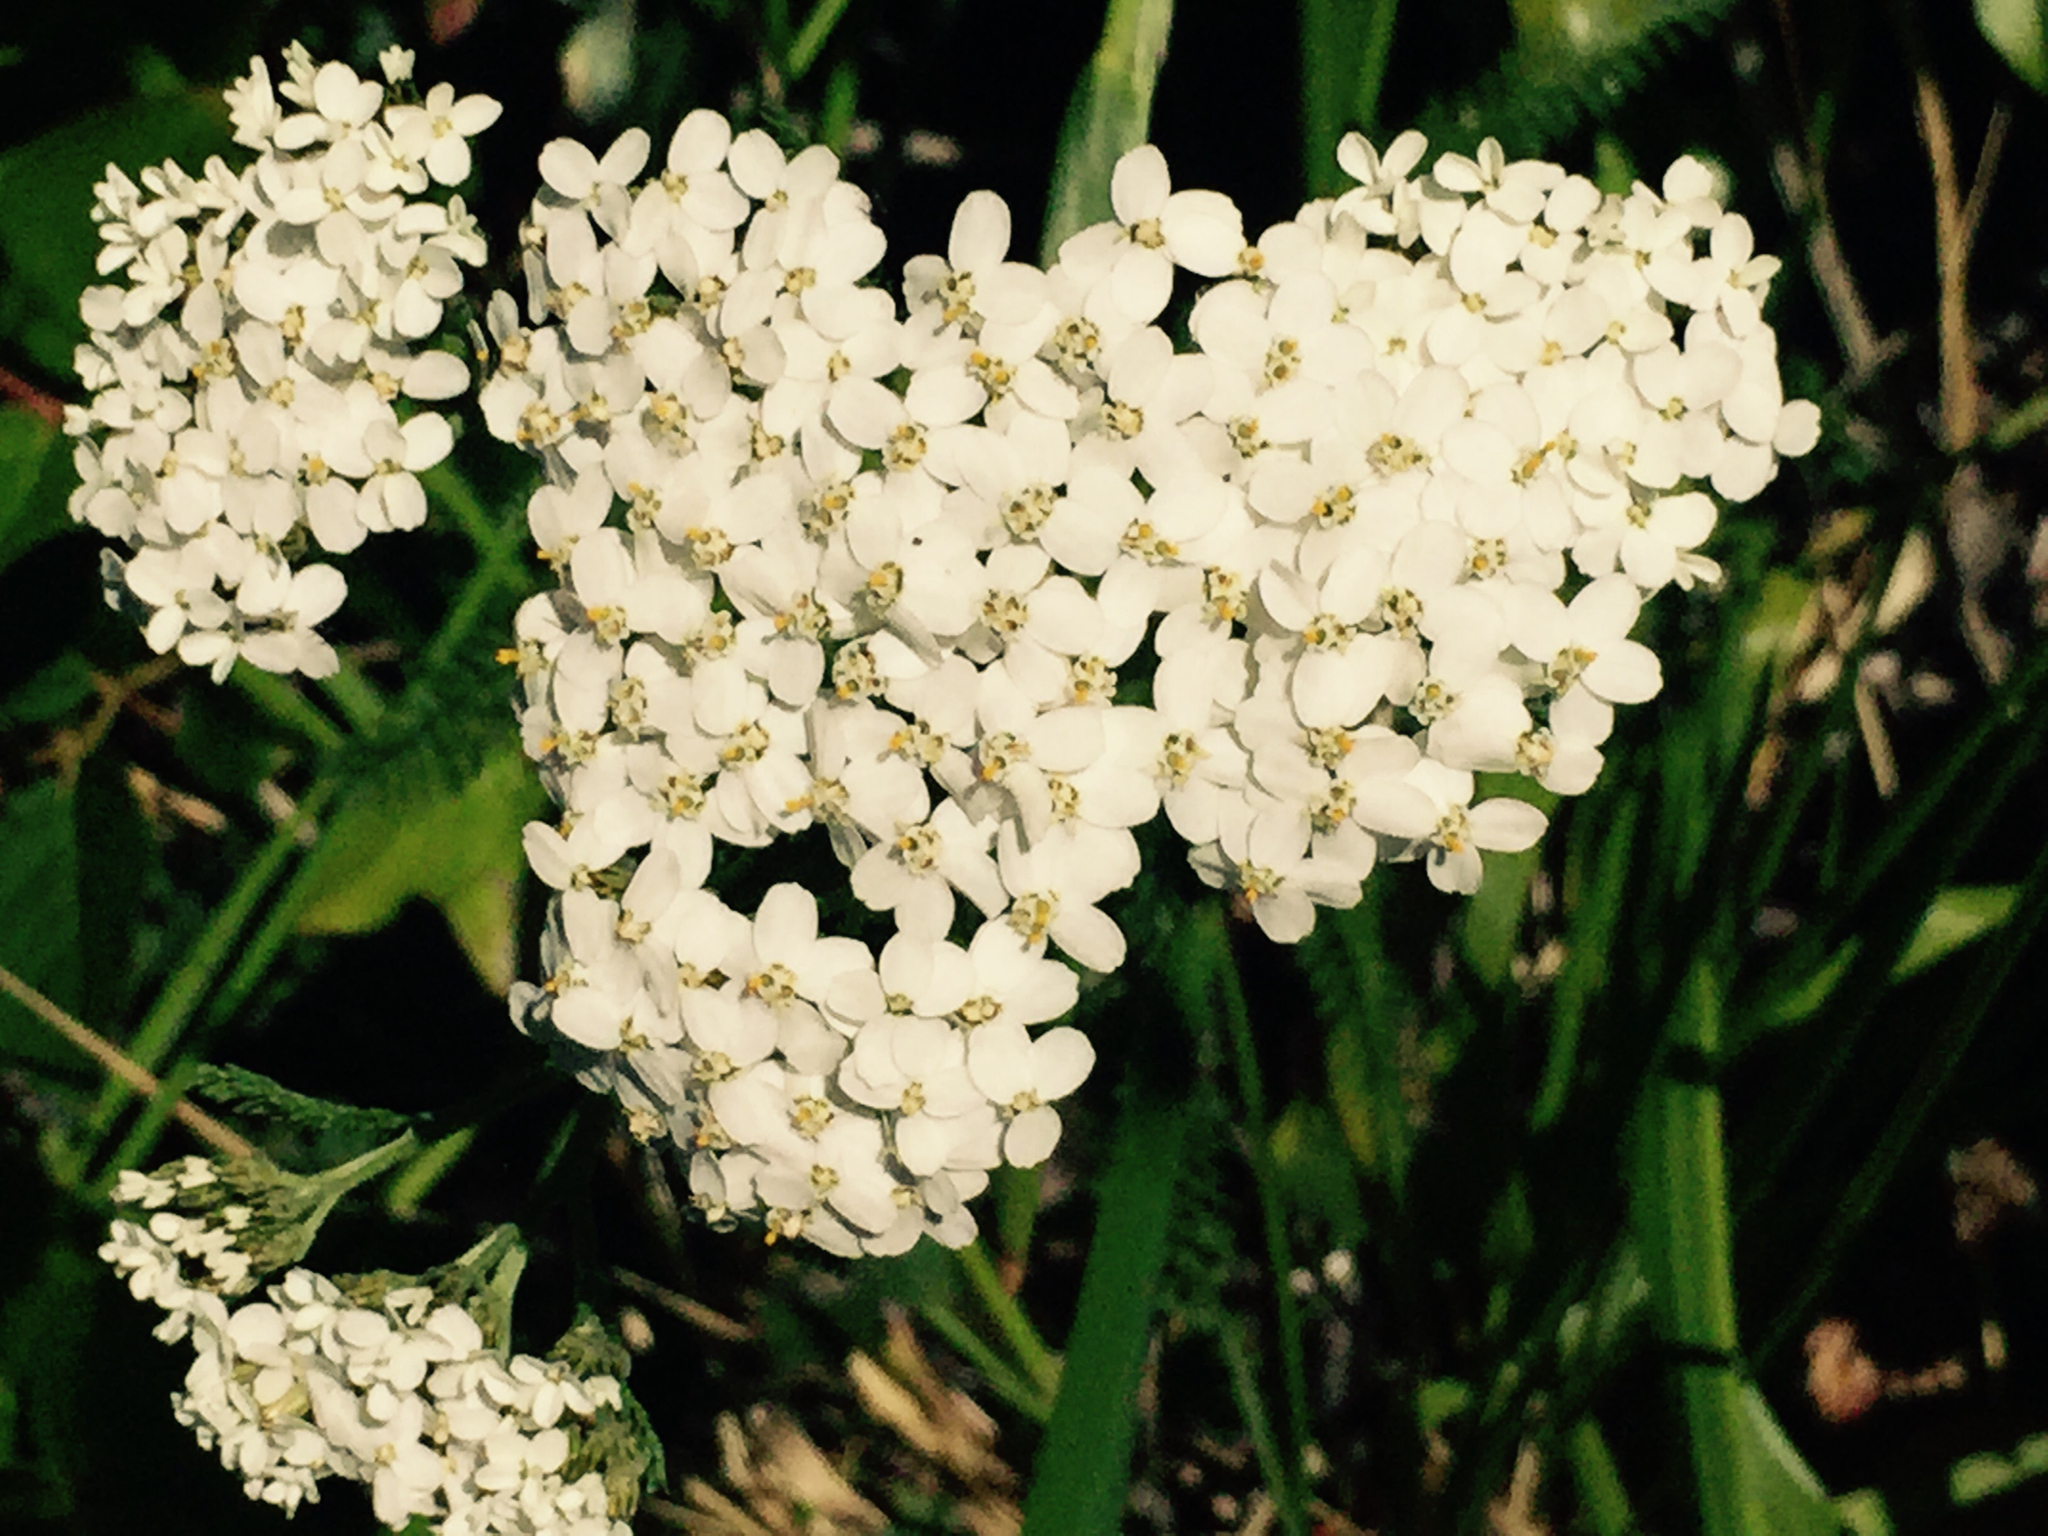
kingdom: Plantae
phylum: Tracheophyta
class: Magnoliopsida
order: Asterales
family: Asteraceae
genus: Achillea
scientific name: Achillea millefolium
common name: Yarrow
